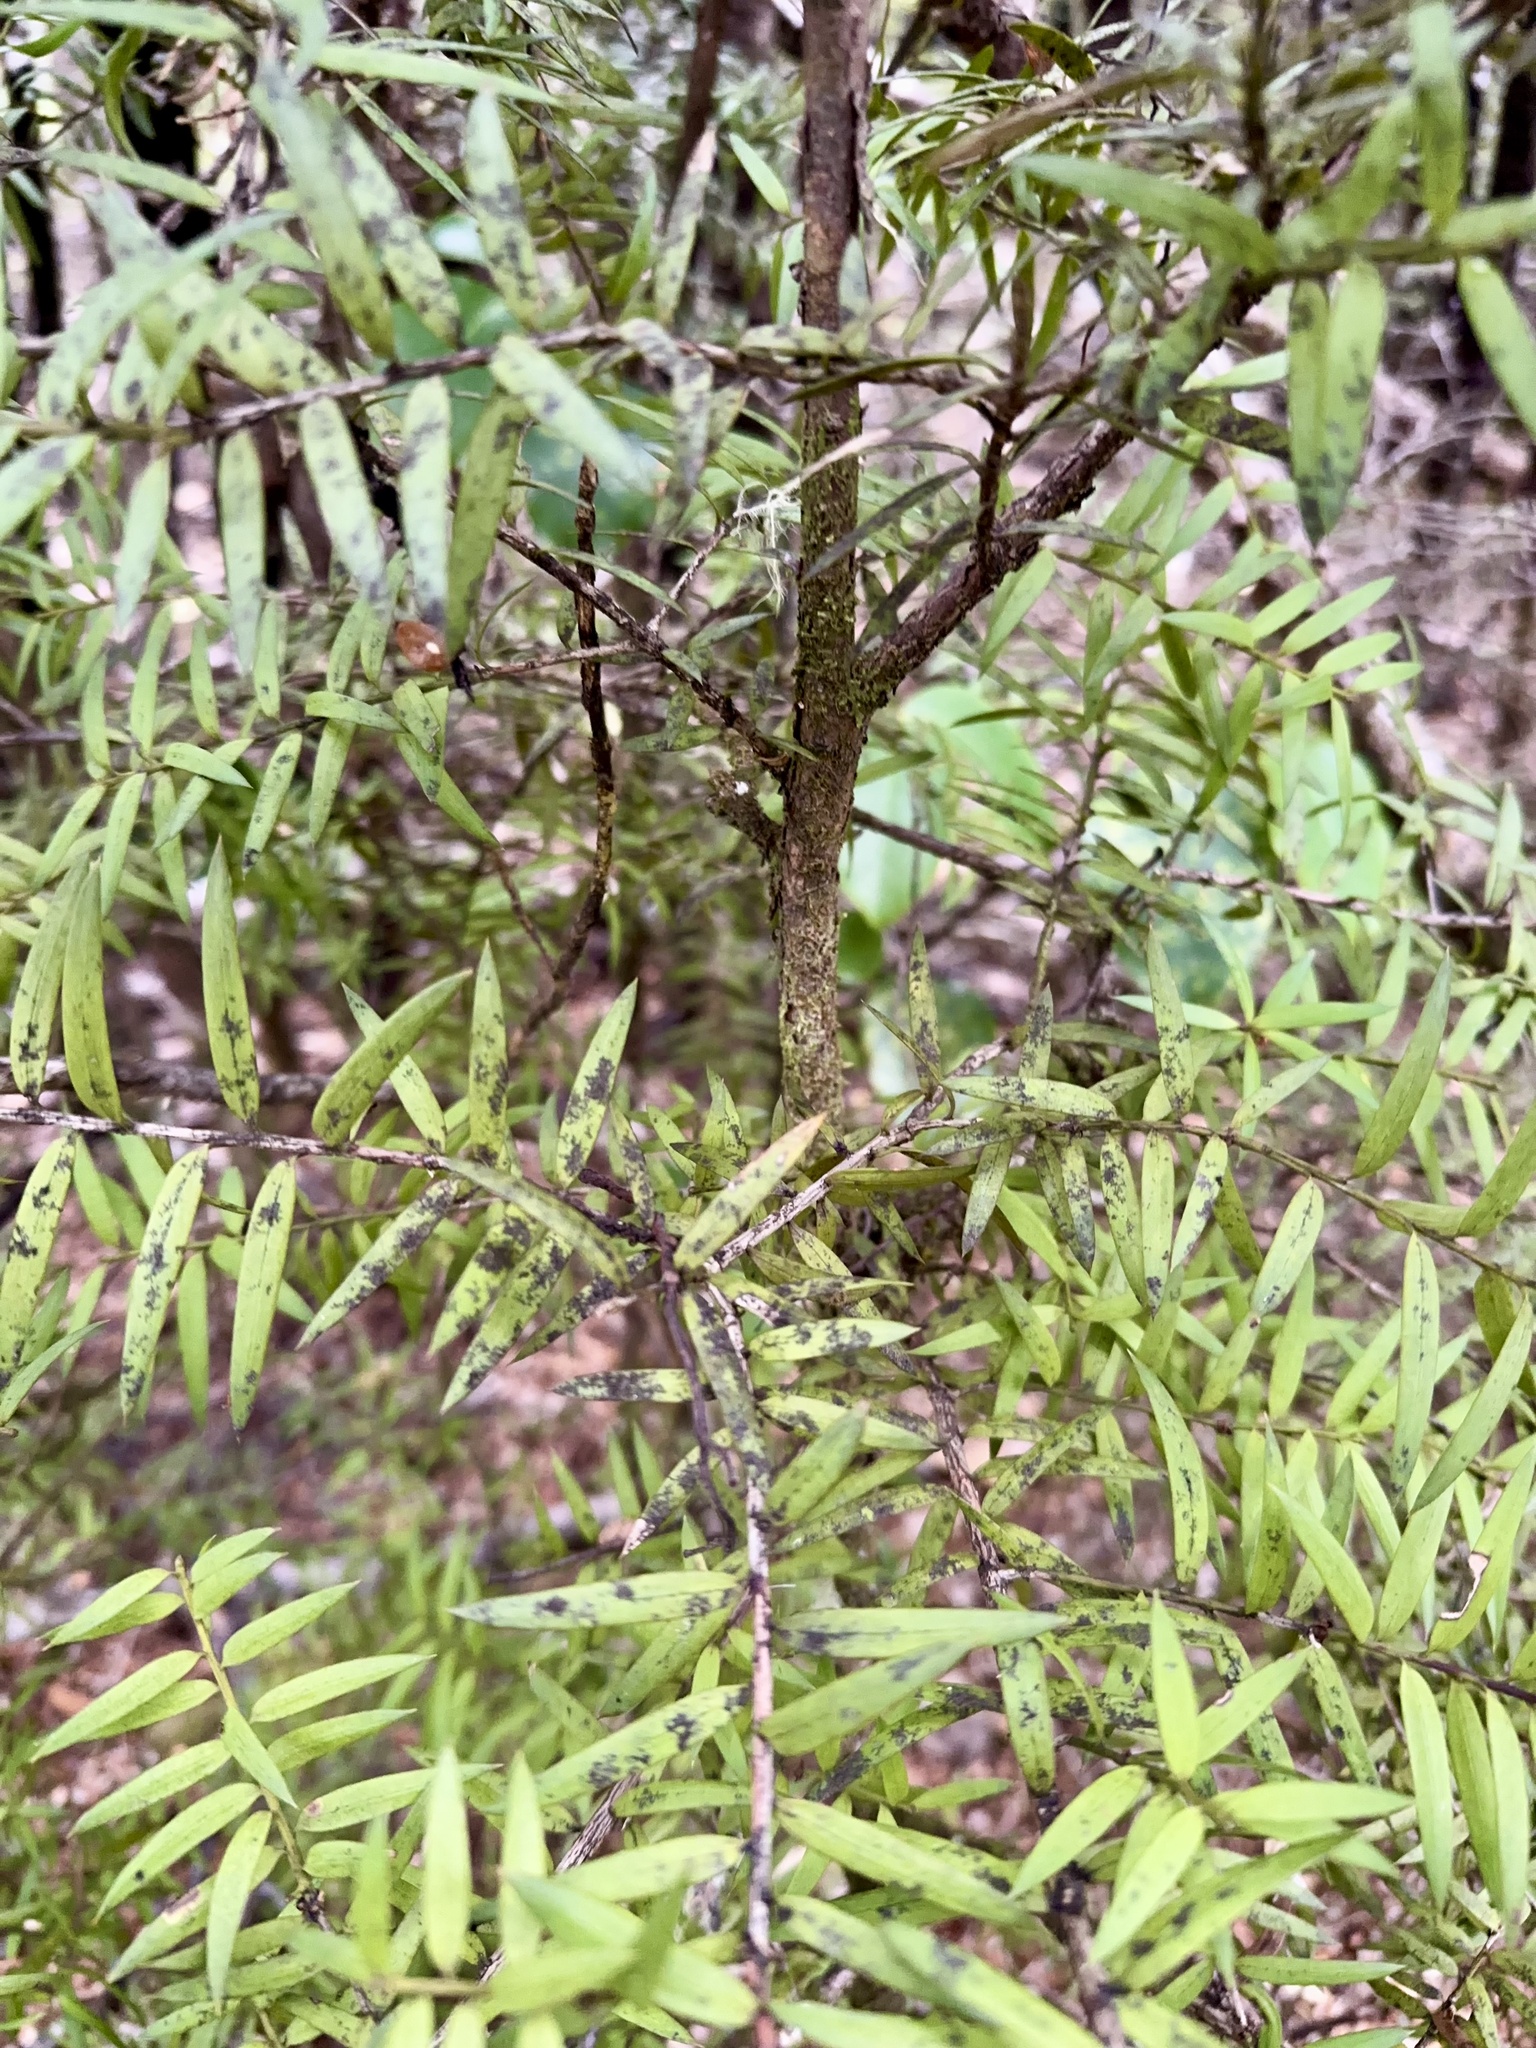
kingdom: Plantae
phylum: Tracheophyta
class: Pinopsida
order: Pinales
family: Podocarpaceae
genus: Podocarpus
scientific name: Podocarpus laetus
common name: Hall's totara
